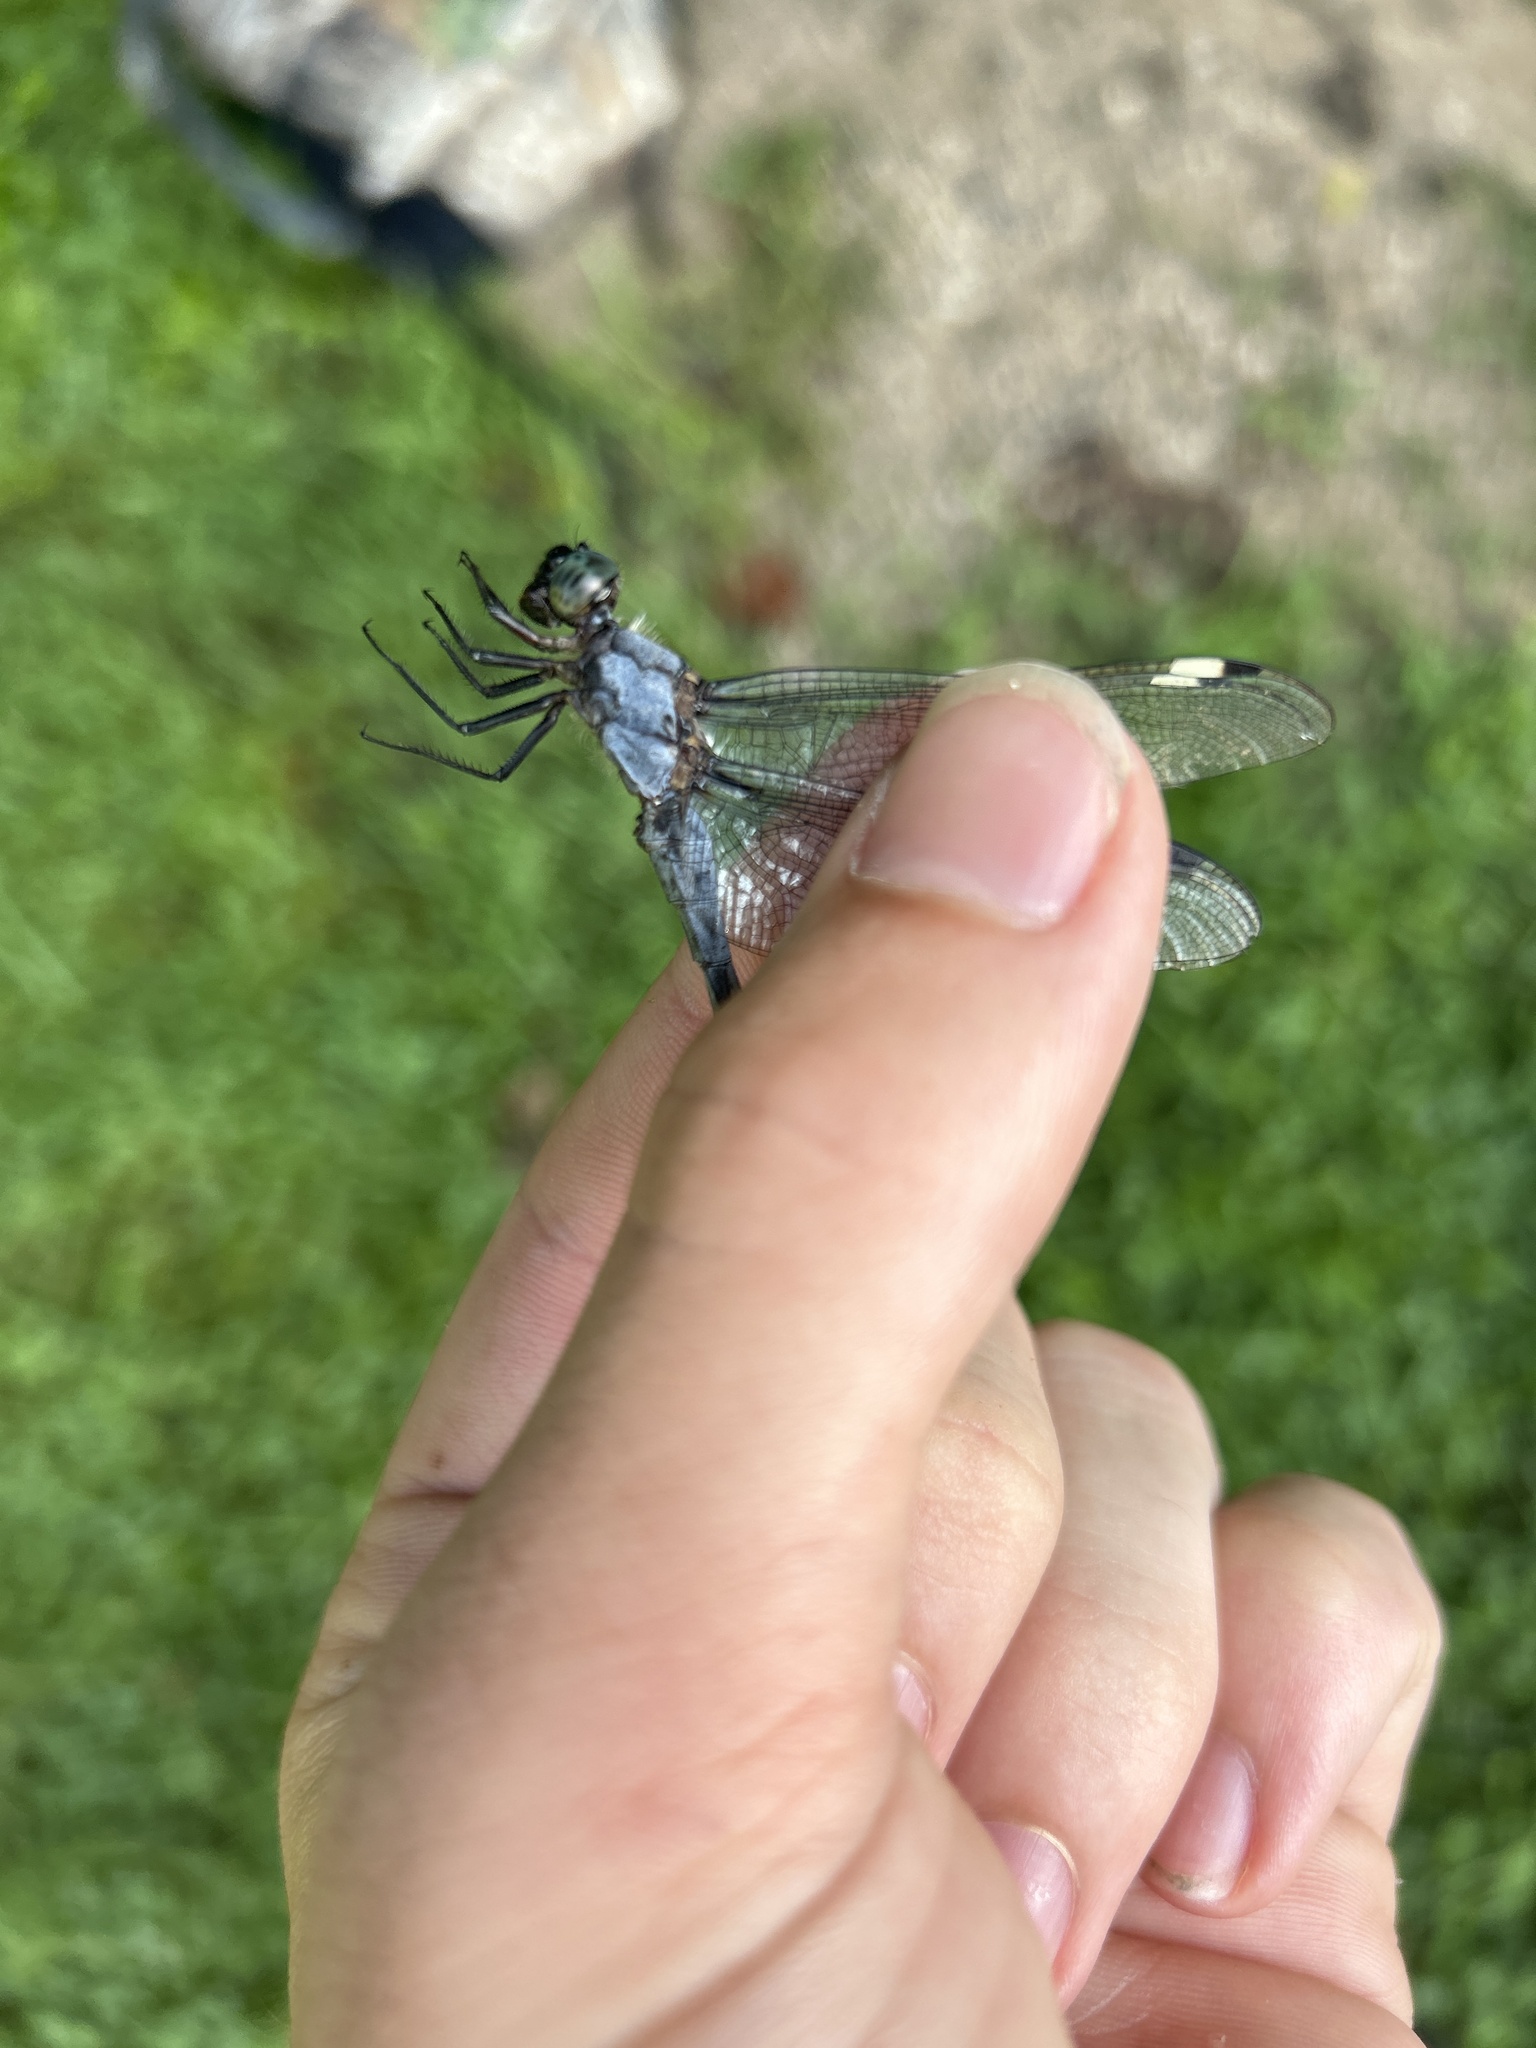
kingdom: Animalia
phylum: Arthropoda
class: Insecta
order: Odonata
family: Libellulidae
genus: Libellula
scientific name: Libellula cyanea
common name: Spangled skimmer
